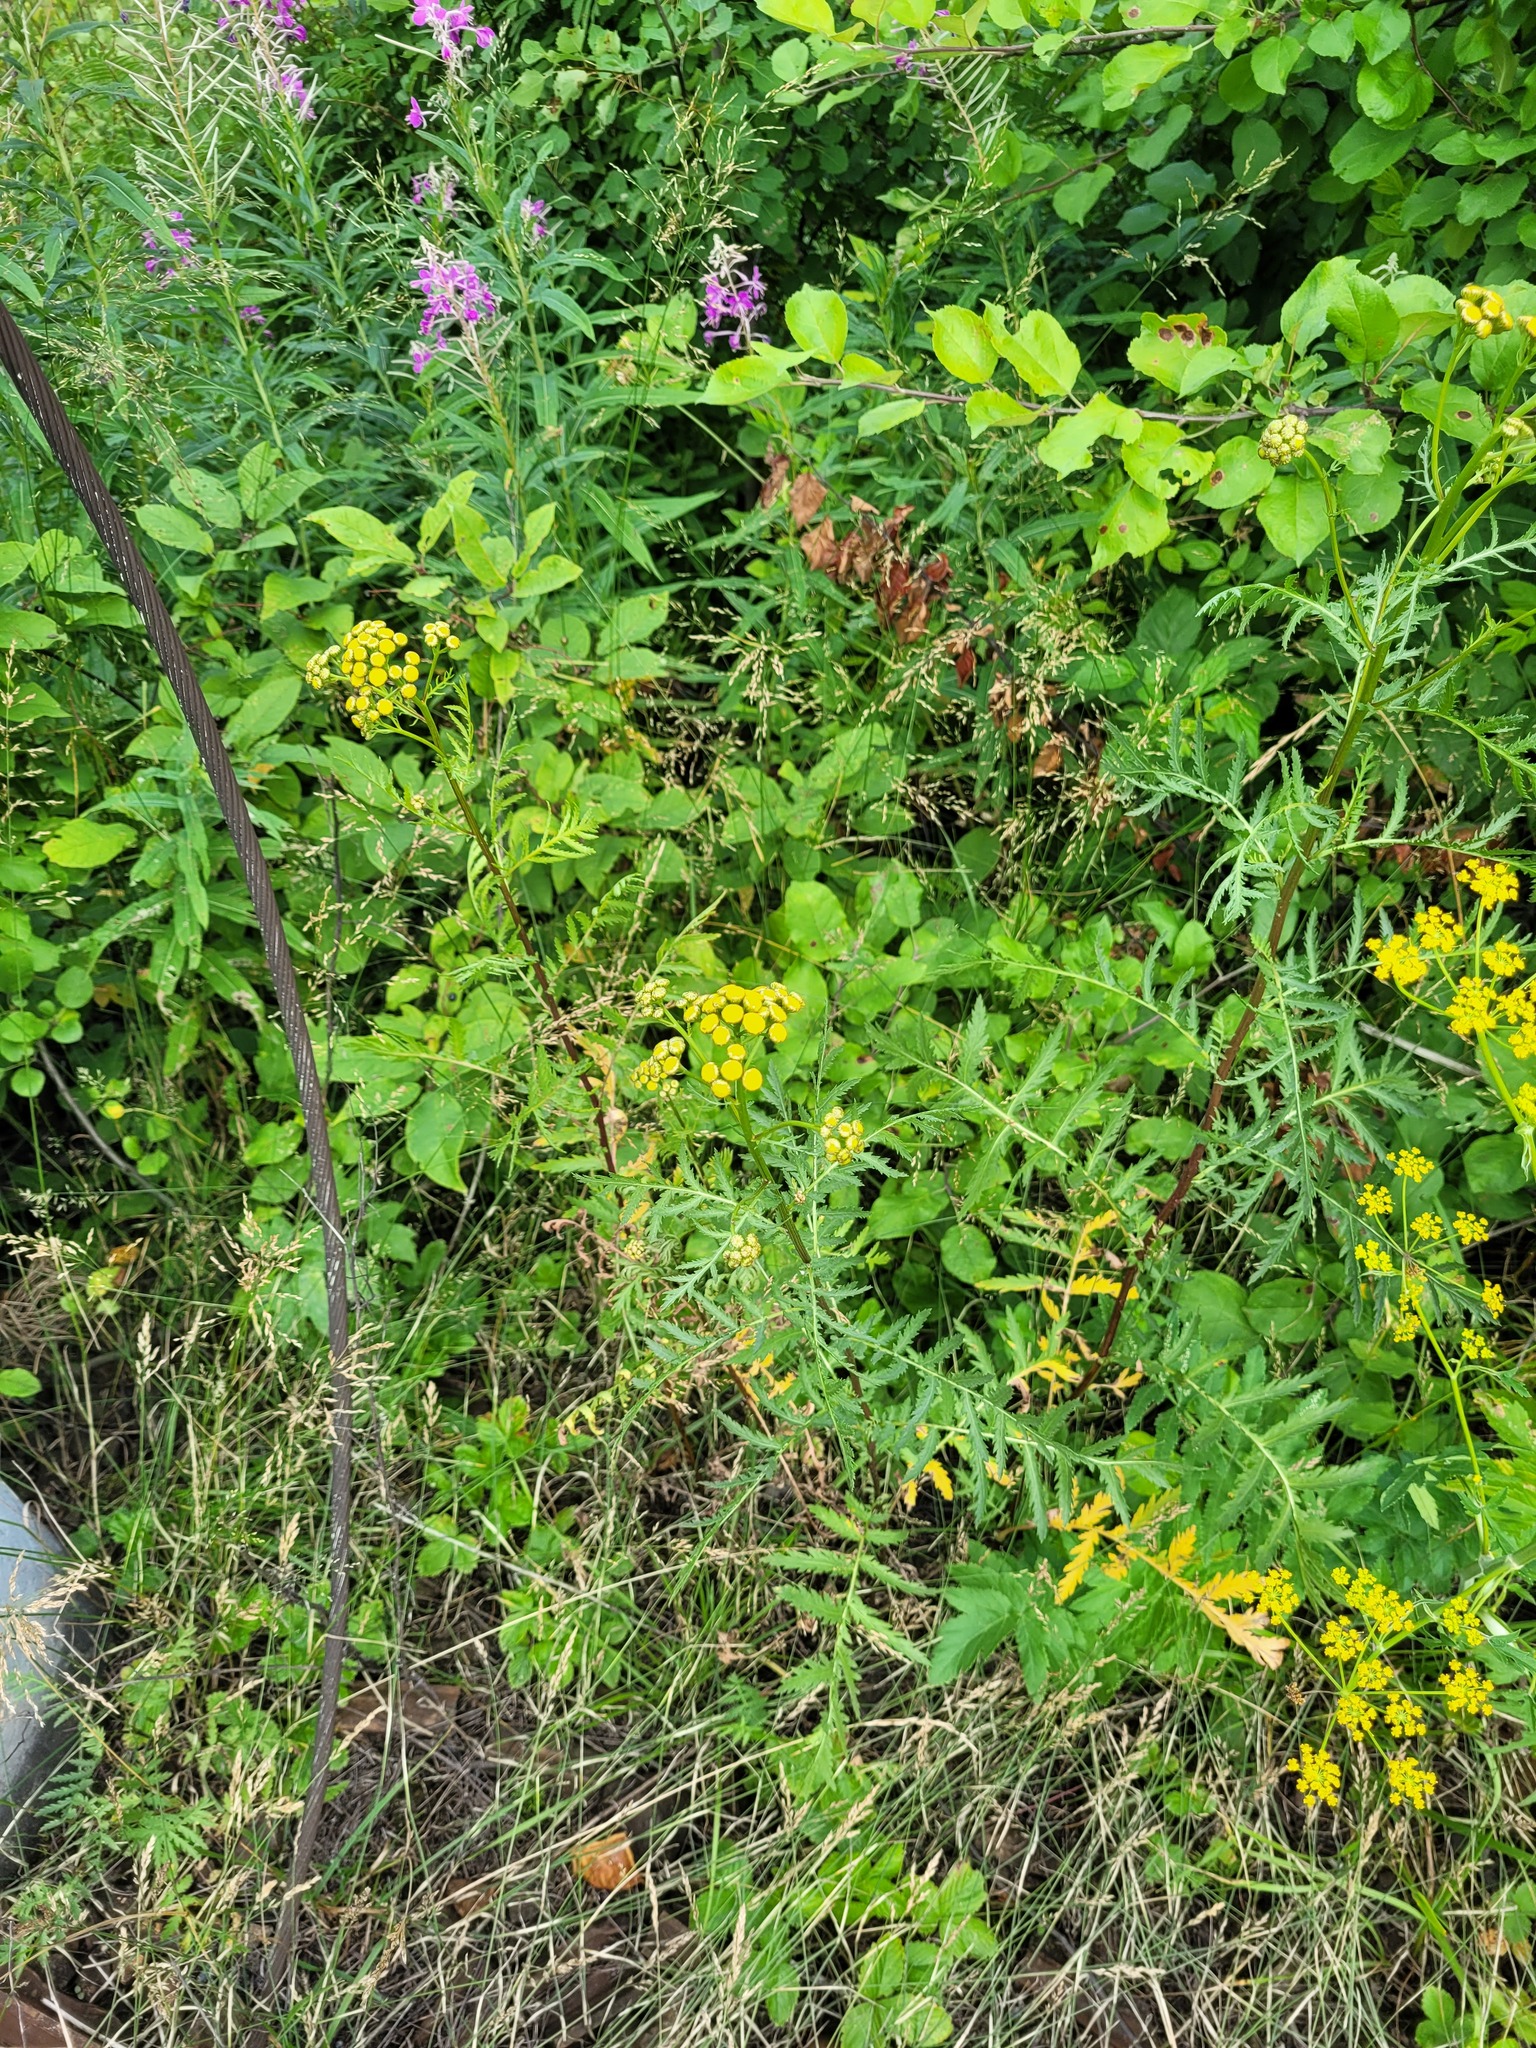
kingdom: Plantae
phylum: Tracheophyta
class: Magnoliopsida
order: Asterales
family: Asteraceae
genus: Tanacetum
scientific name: Tanacetum vulgare
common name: Common tansy
